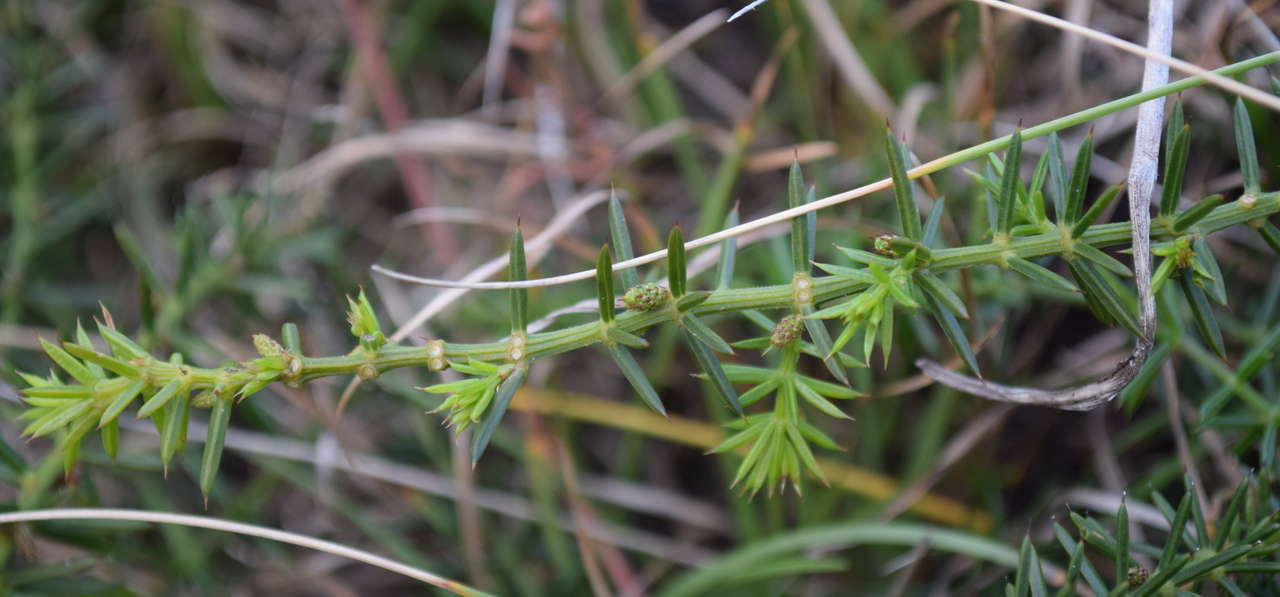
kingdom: Plantae
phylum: Tracheophyta
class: Magnoliopsida
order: Fabales
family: Fabaceae
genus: Acacia
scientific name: Acacia verticillata
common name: Prickly moses
